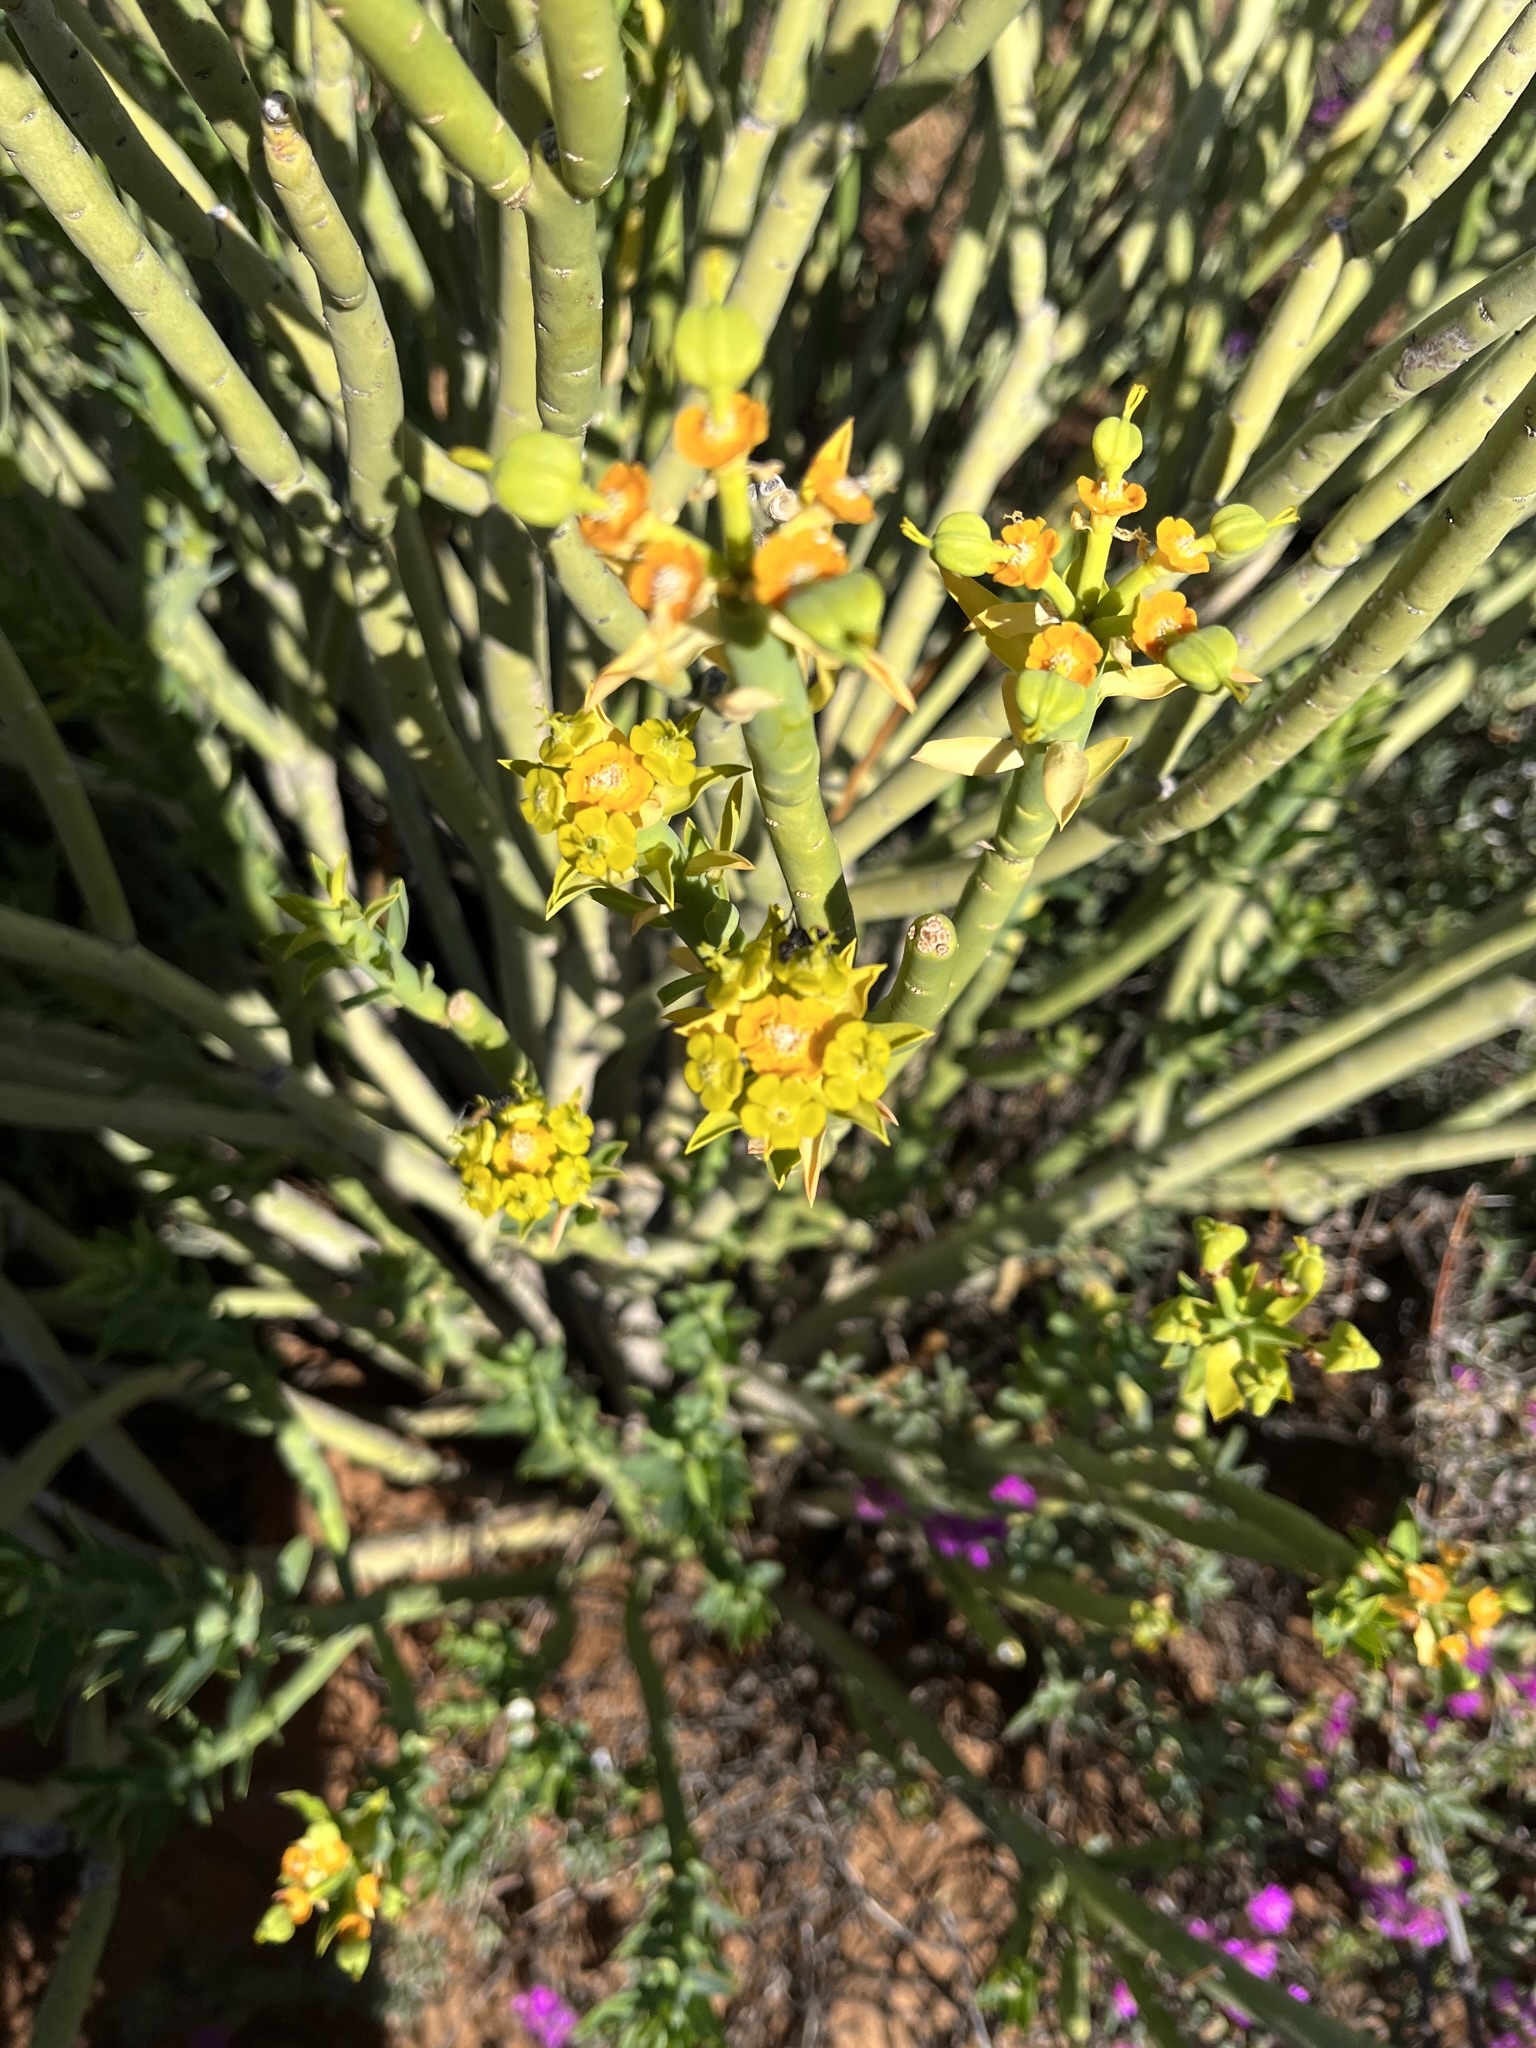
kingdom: Plantae
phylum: Tracheophyta
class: Magnoliopsida
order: Malpighiales
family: Euphorbiaceae
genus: Euphorbia
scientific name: Euphorbia mauritanica
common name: Jackal's-food
